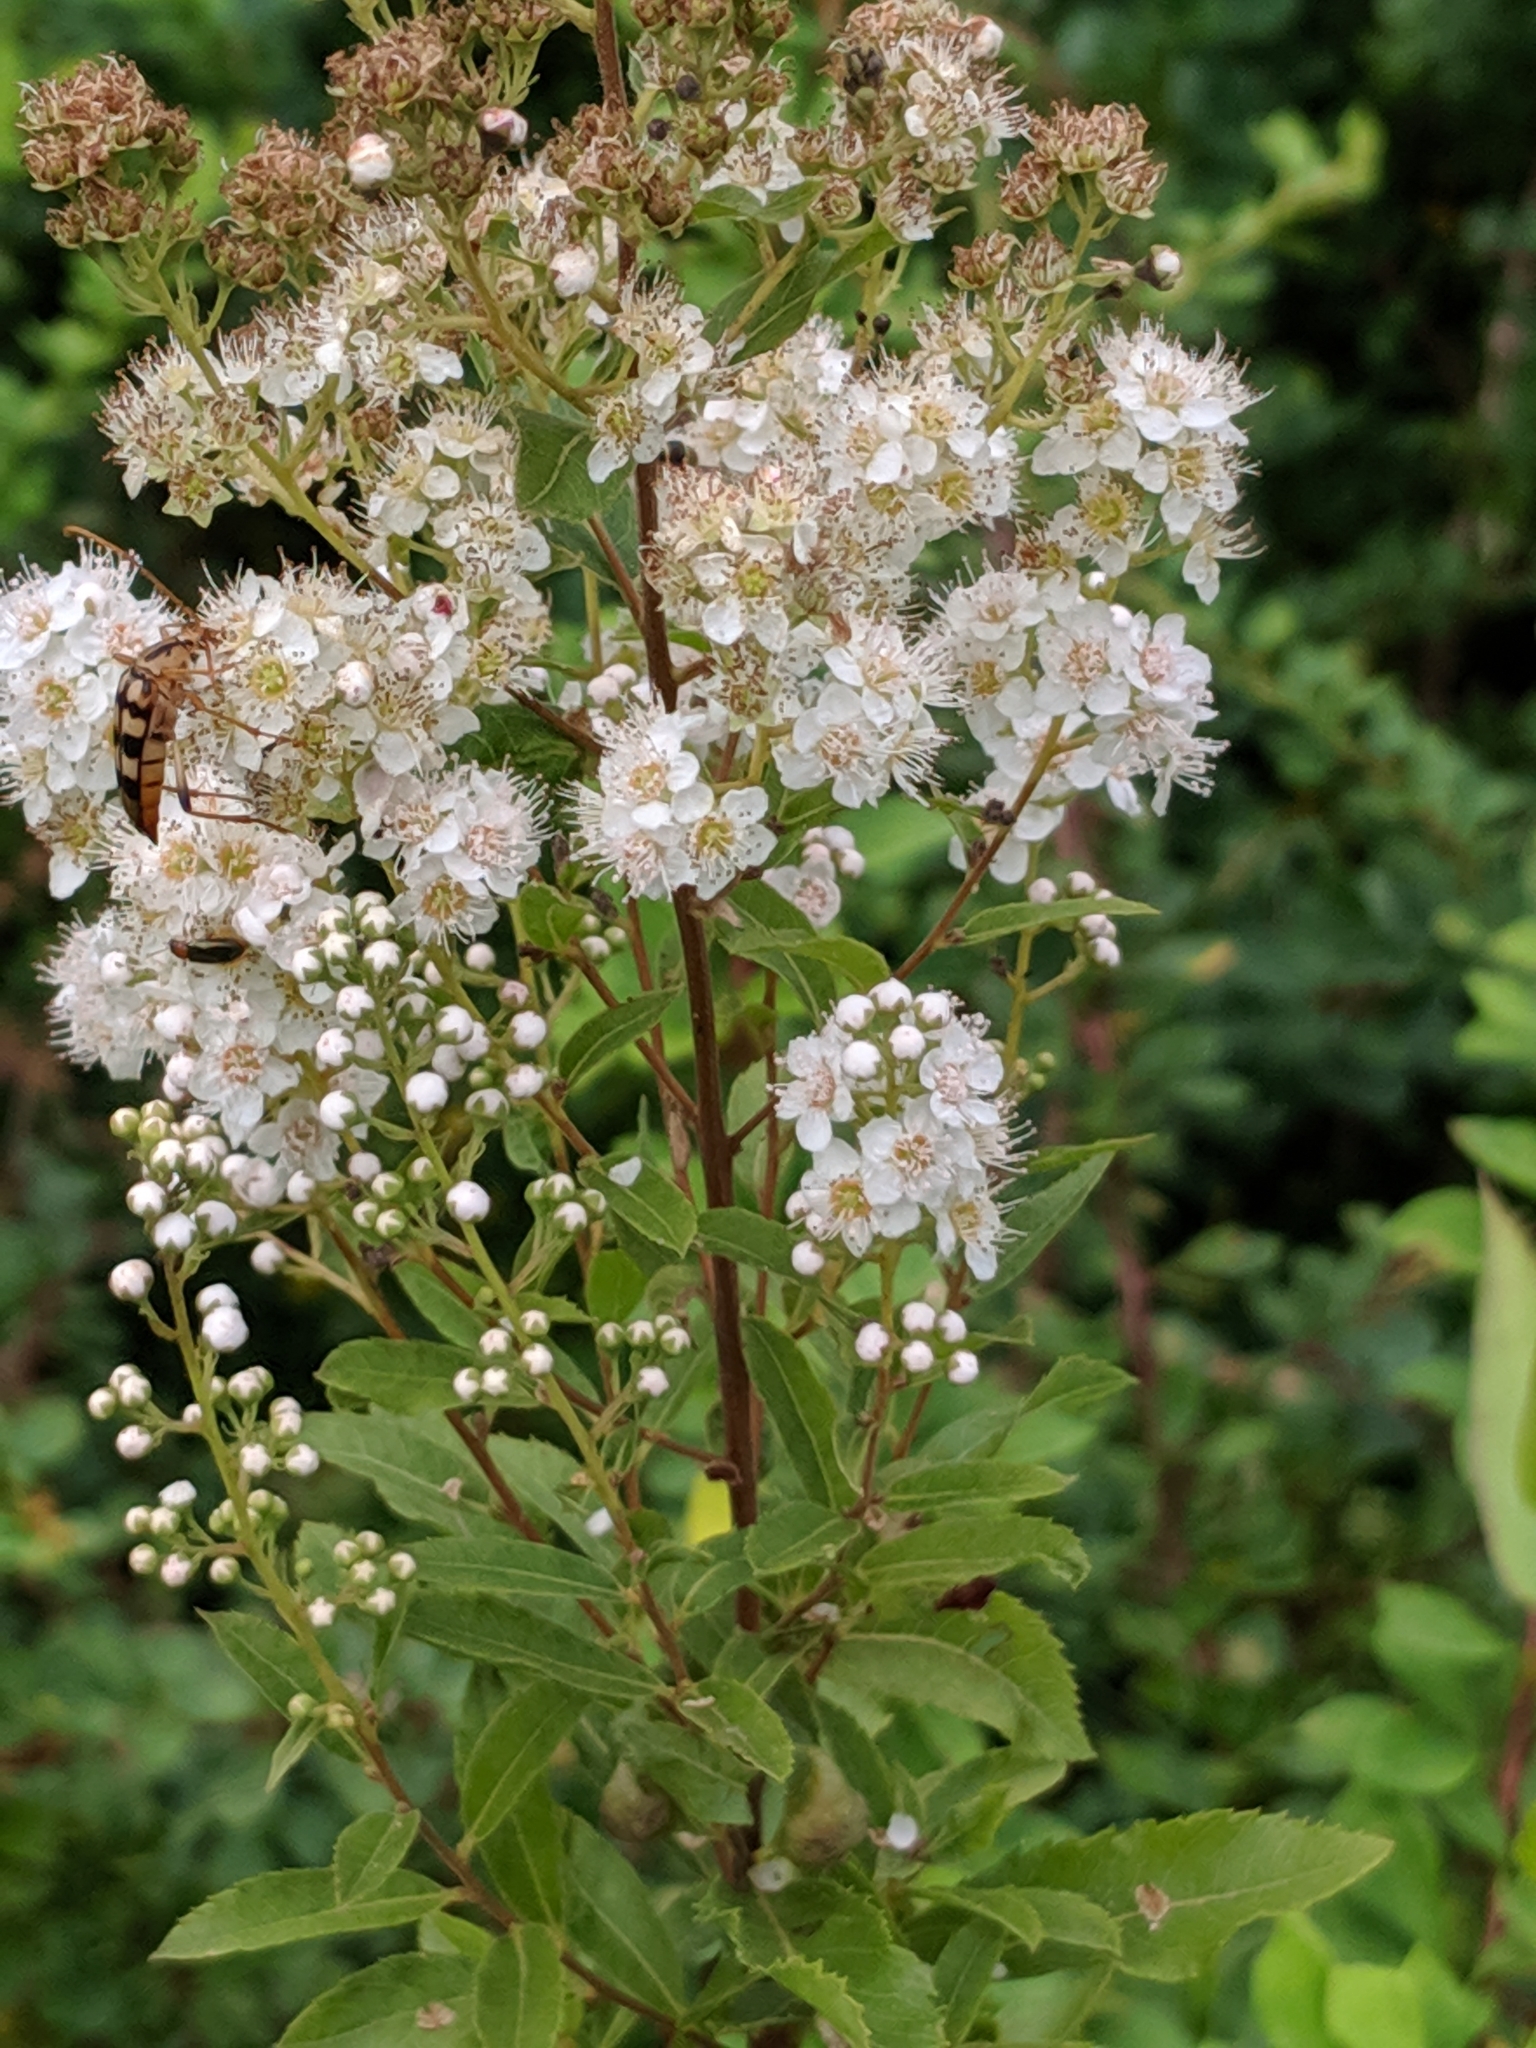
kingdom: Plantae
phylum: Tracheophyta
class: Magnoliopsida
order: Rosales
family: Rosaceae
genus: Spiraea
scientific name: Spiraea alba
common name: Pale bridewort
